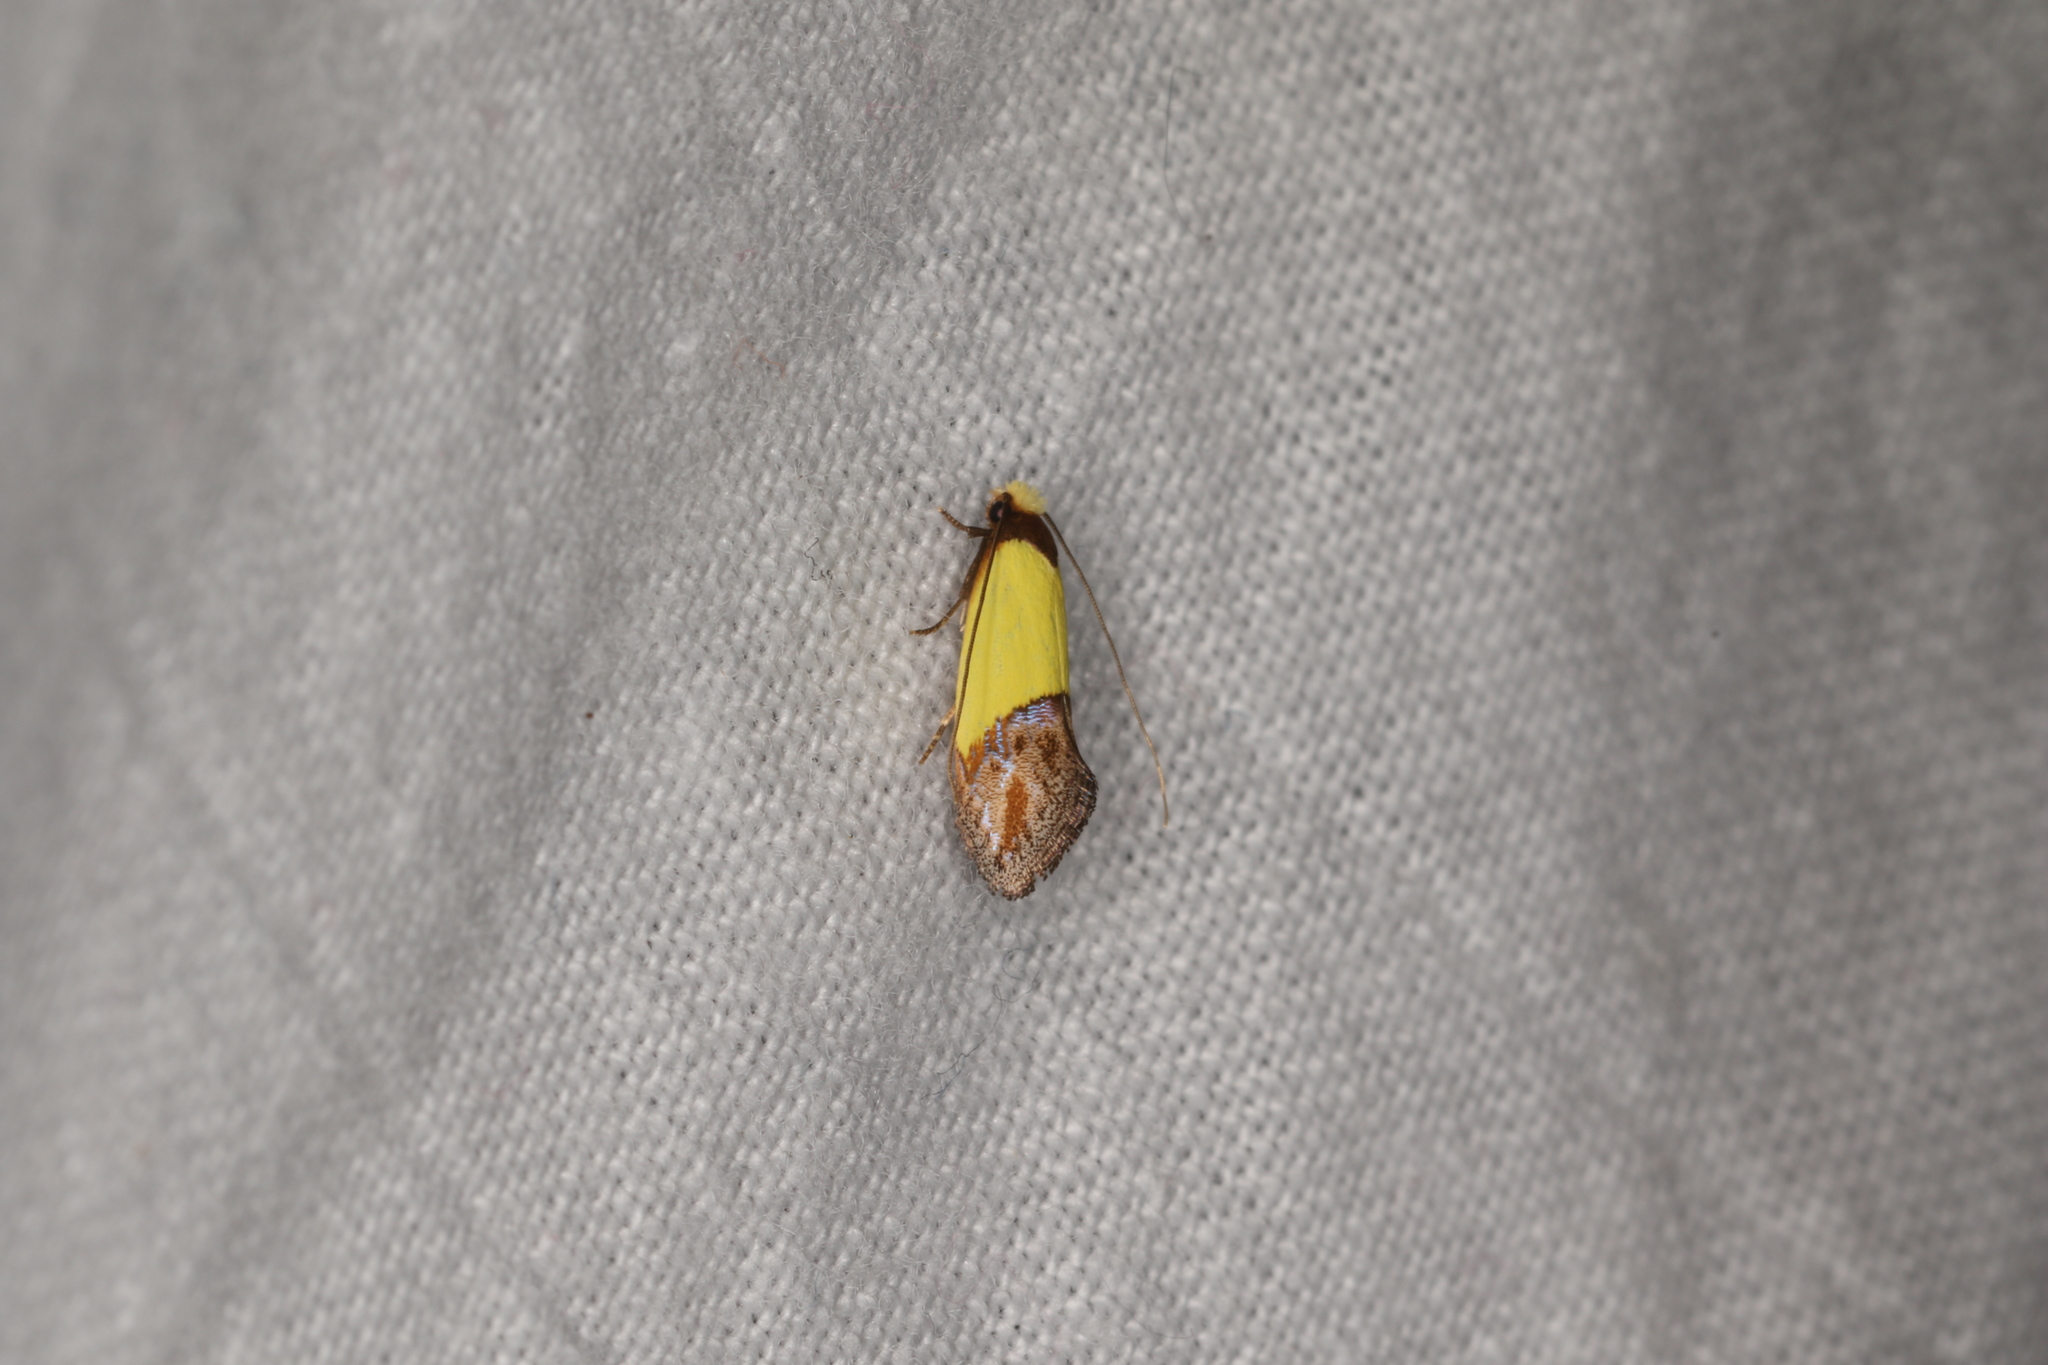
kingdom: Animalia
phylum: Arthropoda
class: Insecta
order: Lepidoptera
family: Tineidae
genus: Edosa
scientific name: Edosa xystidophora
